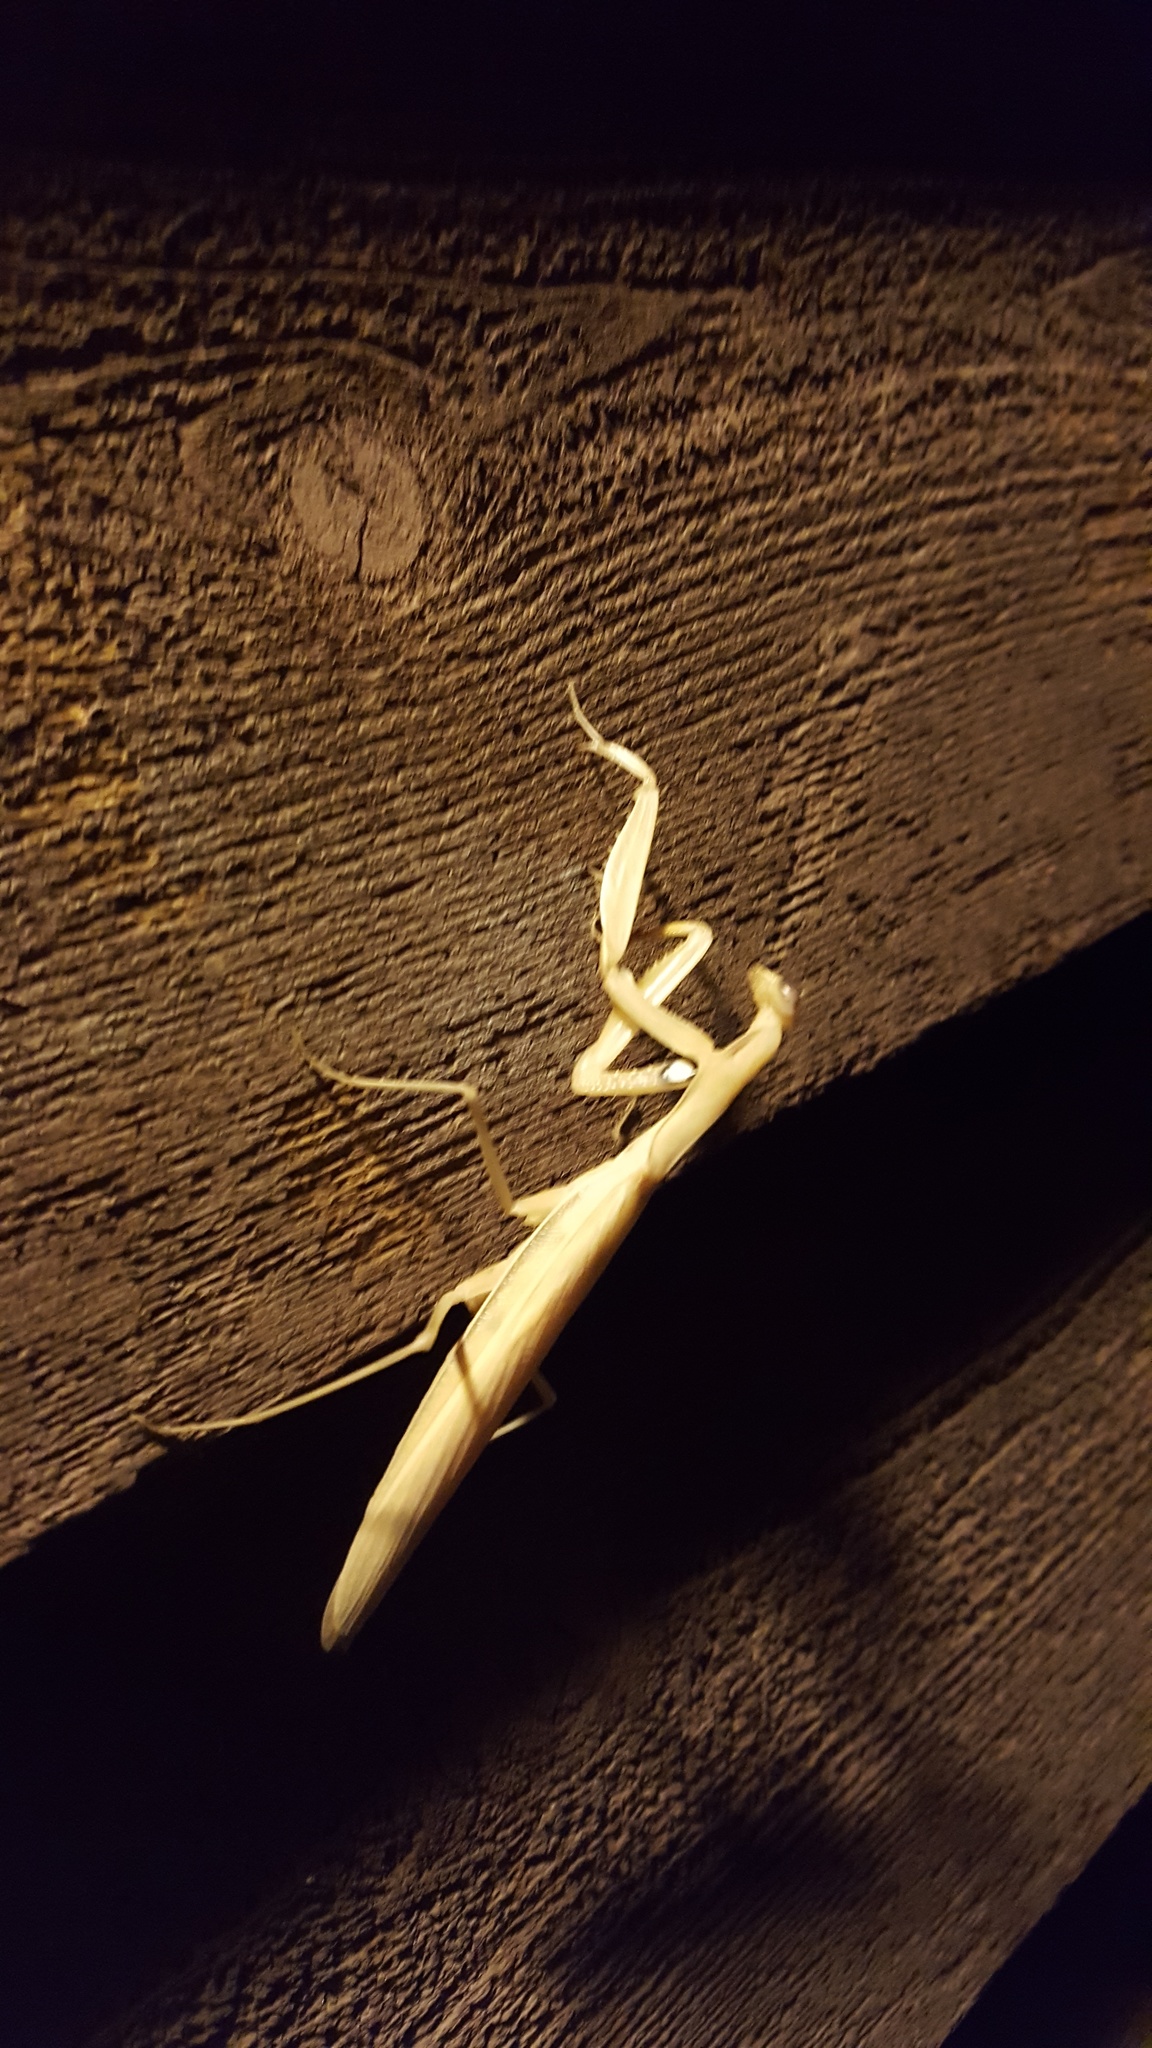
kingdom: Animalia
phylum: Arthropoda
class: Insecta
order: Mantodea
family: Mantidae
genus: Mantis
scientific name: Mantis religiosa
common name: Praying mantis
